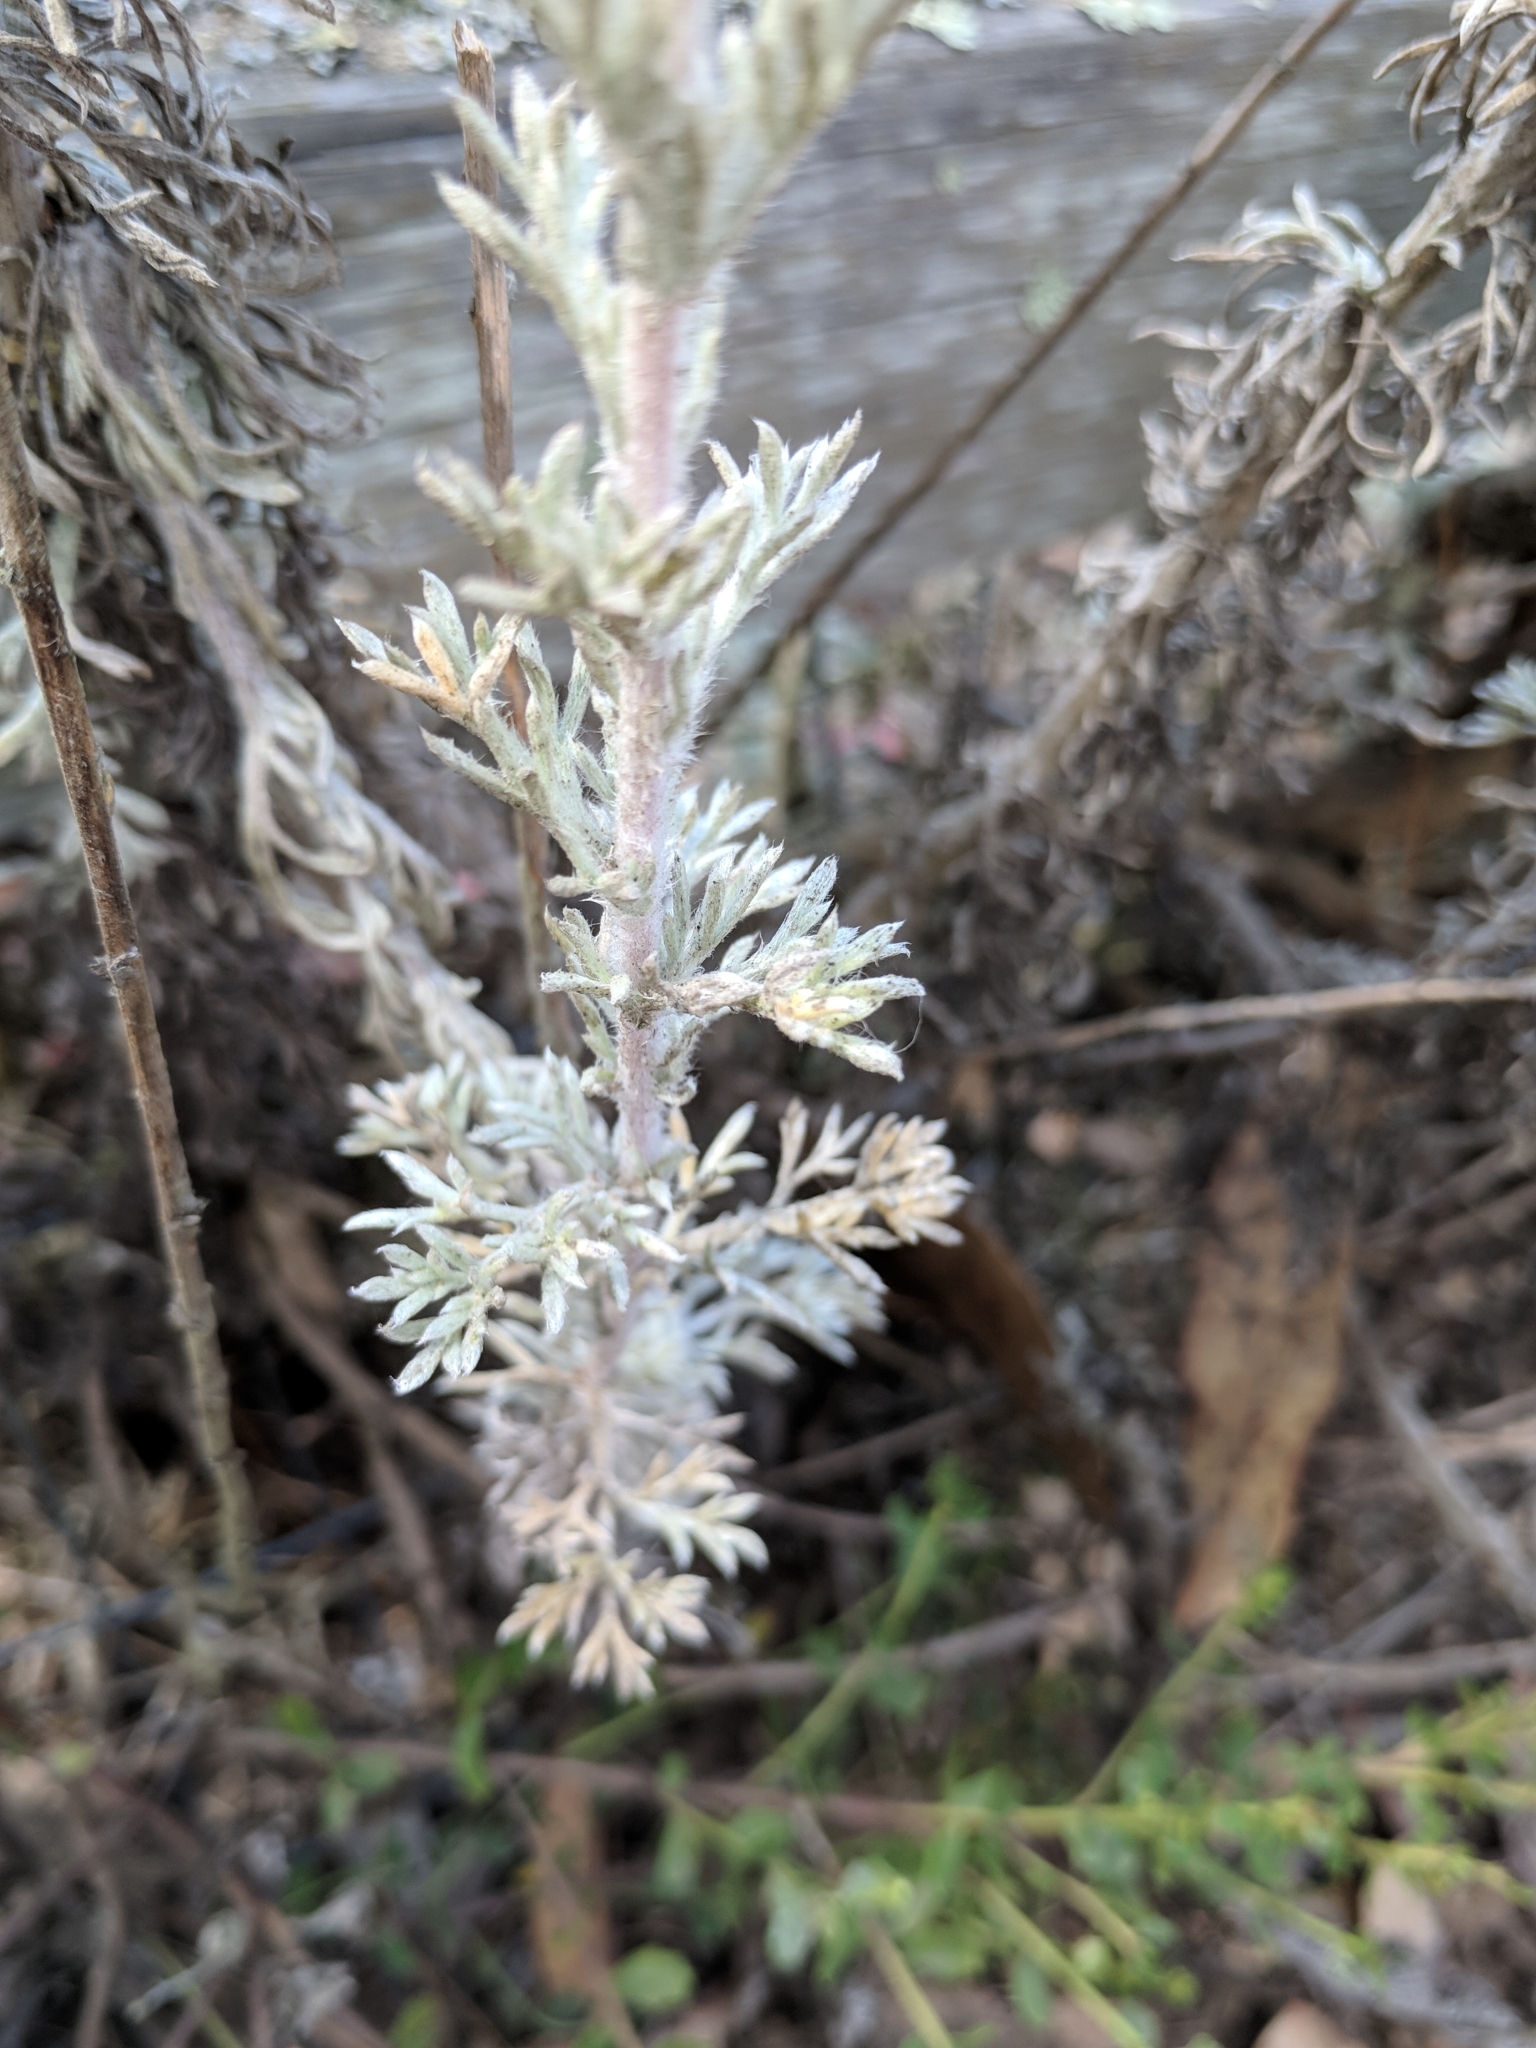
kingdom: Plantae
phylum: Tracheophyta
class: Magnoliopsida
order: Asterales
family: Asteraceae
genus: Artemisia
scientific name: Artemisia pycnocephala
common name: Coastal sagewort
